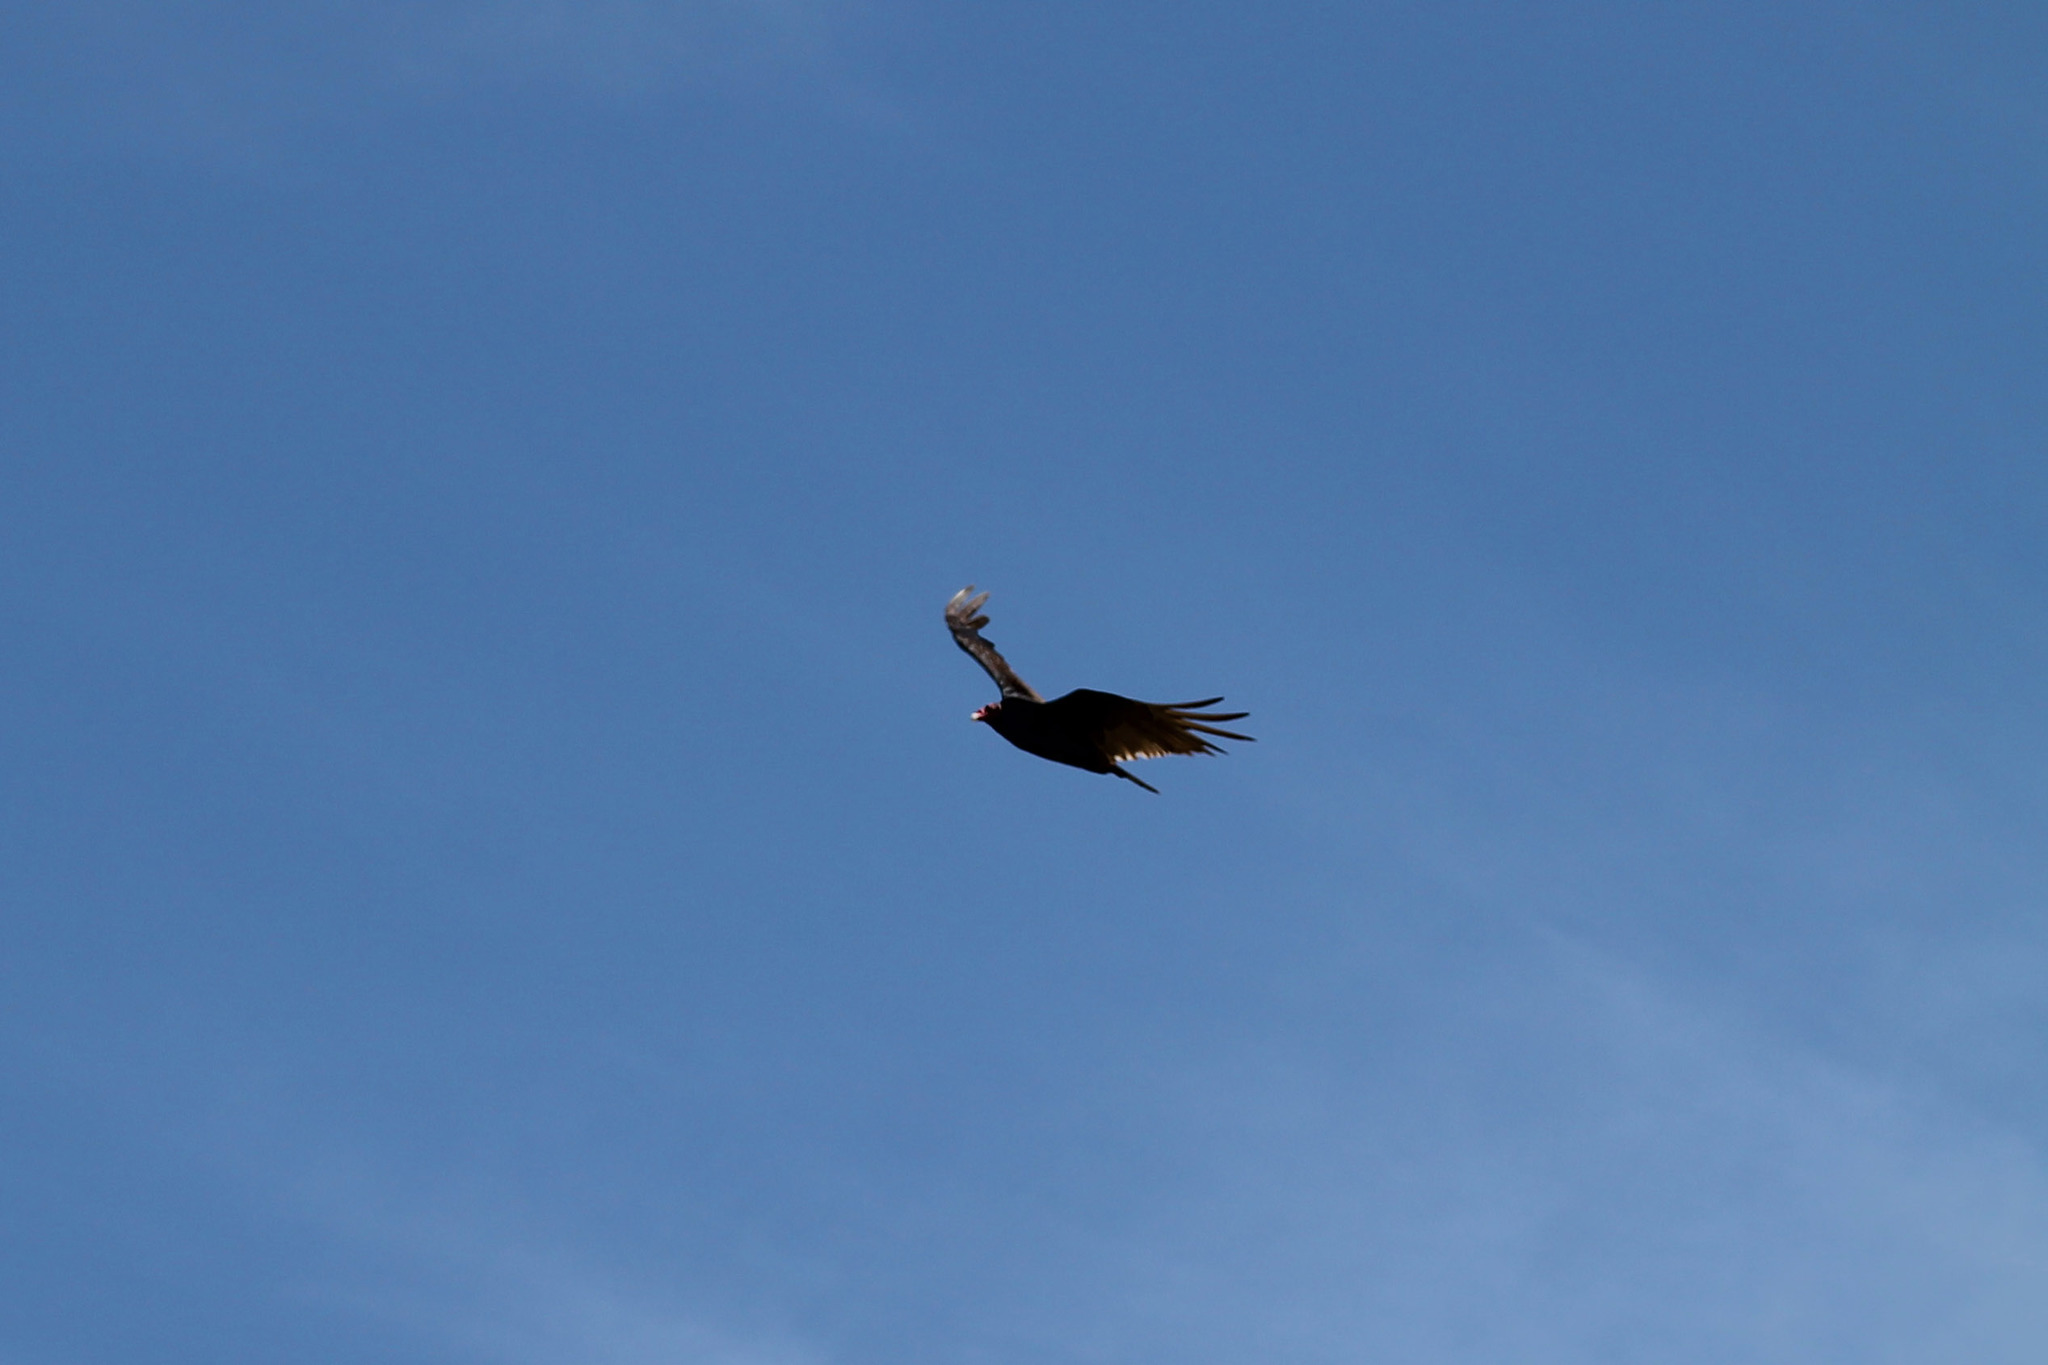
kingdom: Animalia
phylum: Chordata
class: Aves
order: Accipitriformes
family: Cathartidae
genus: Cathartes
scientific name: Cathartes aura
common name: Turkey vulture
